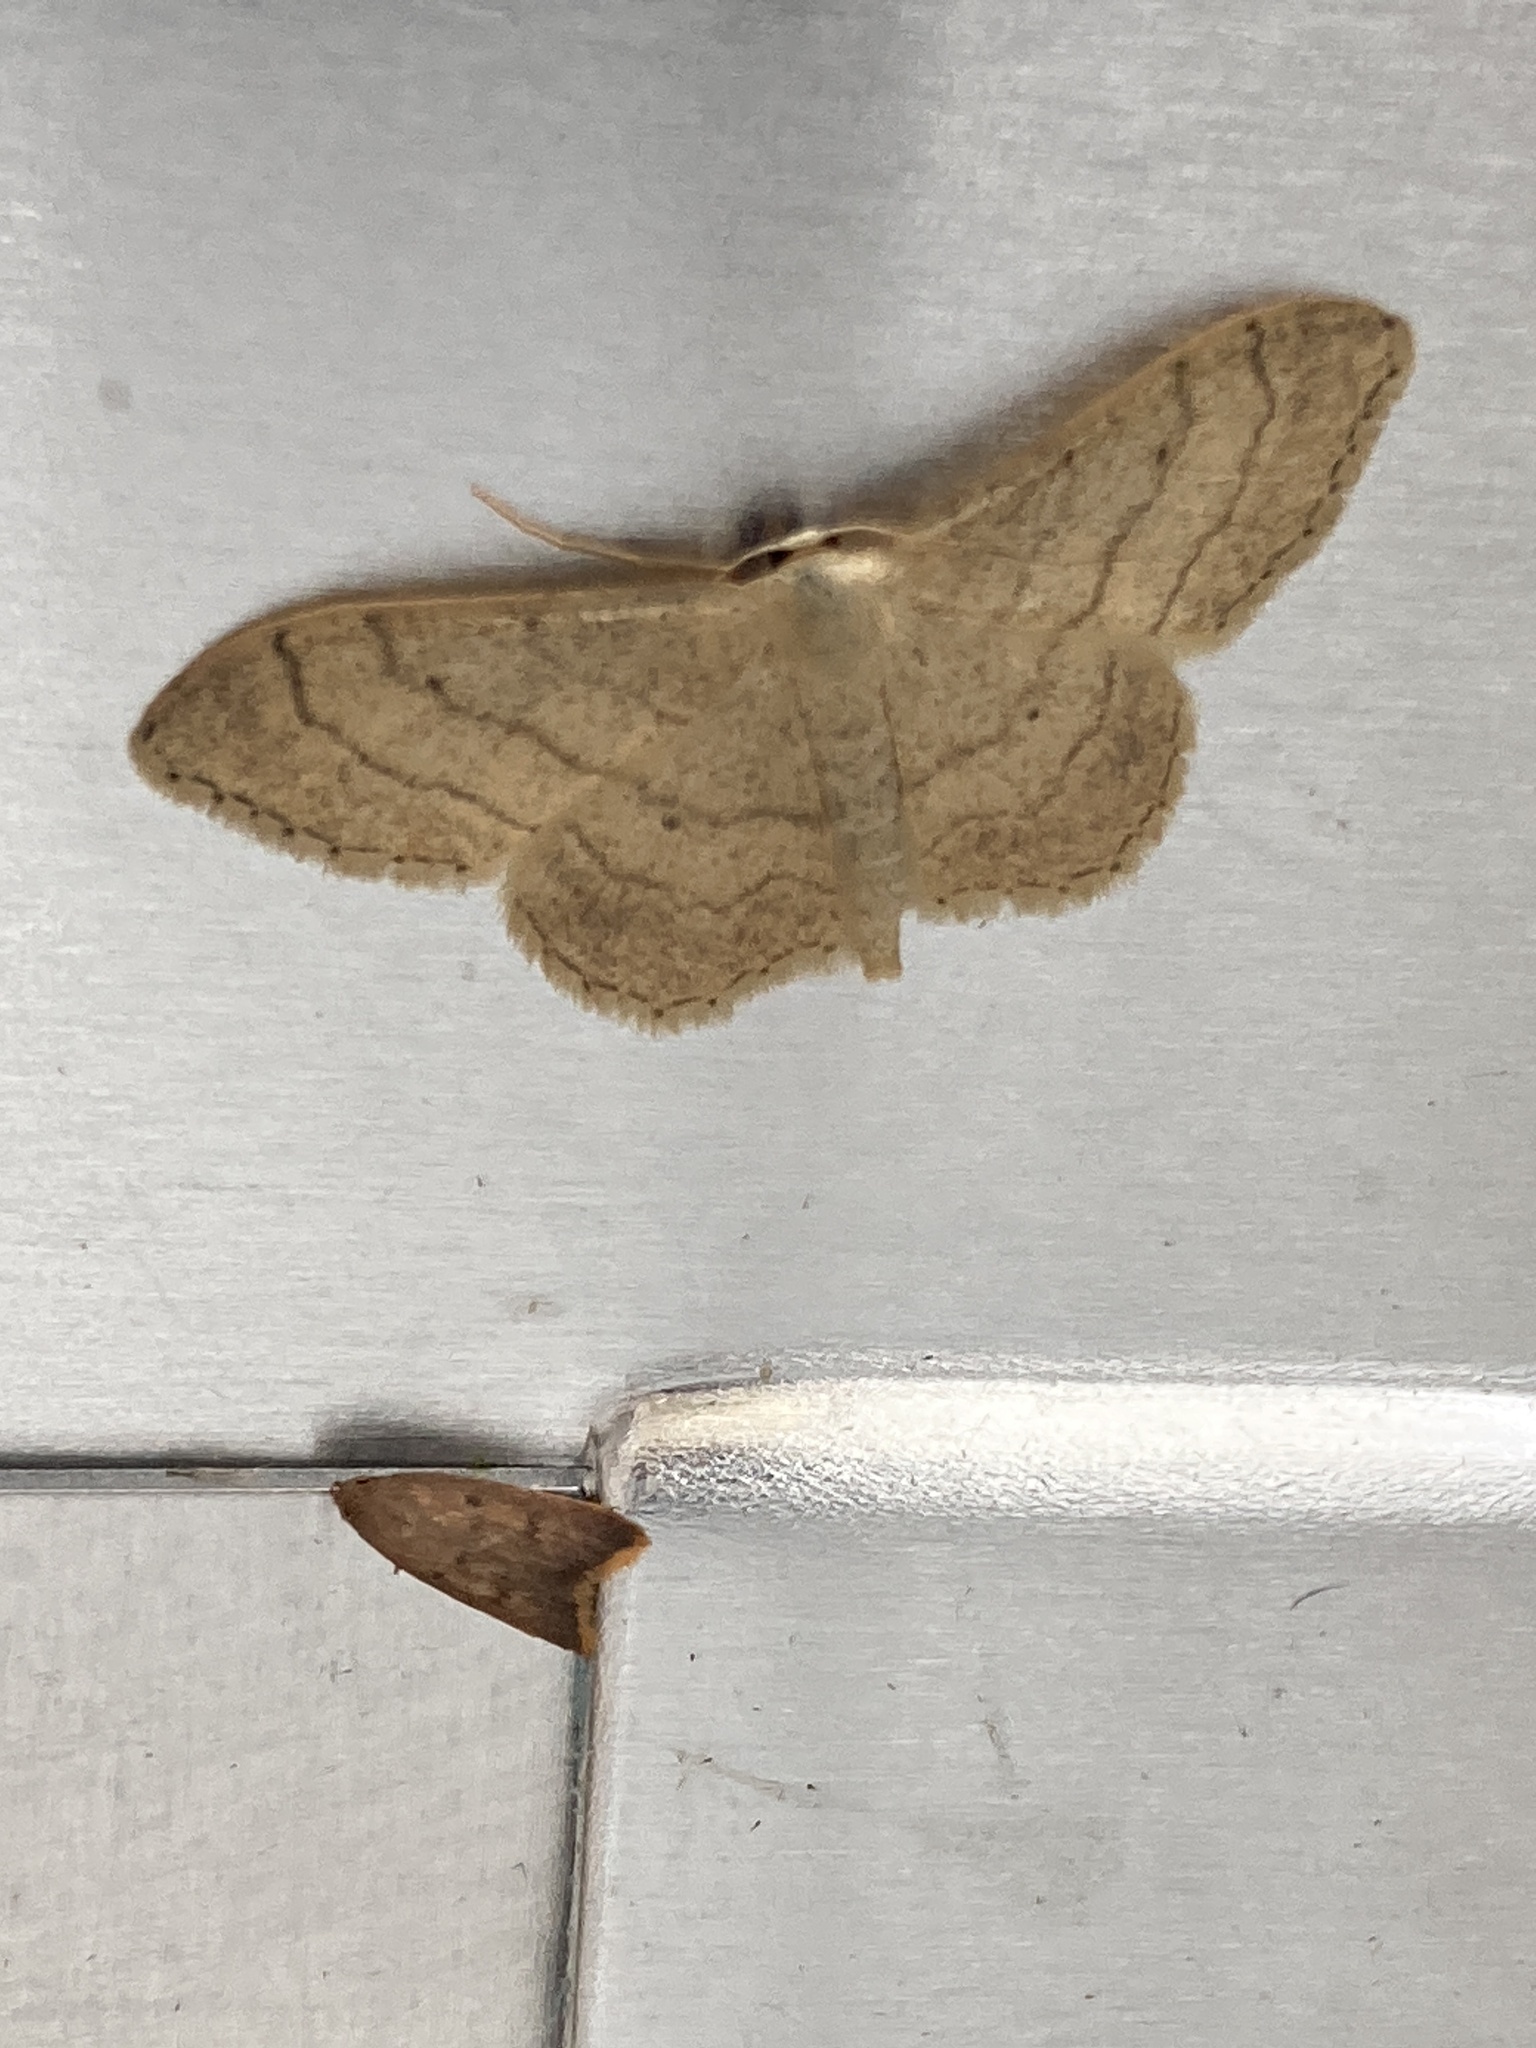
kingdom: Animalia
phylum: Arthropoda
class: Insecta
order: Lepidoptera
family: Geometridae
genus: Idaea
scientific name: Idaea aversata
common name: Riband wave
